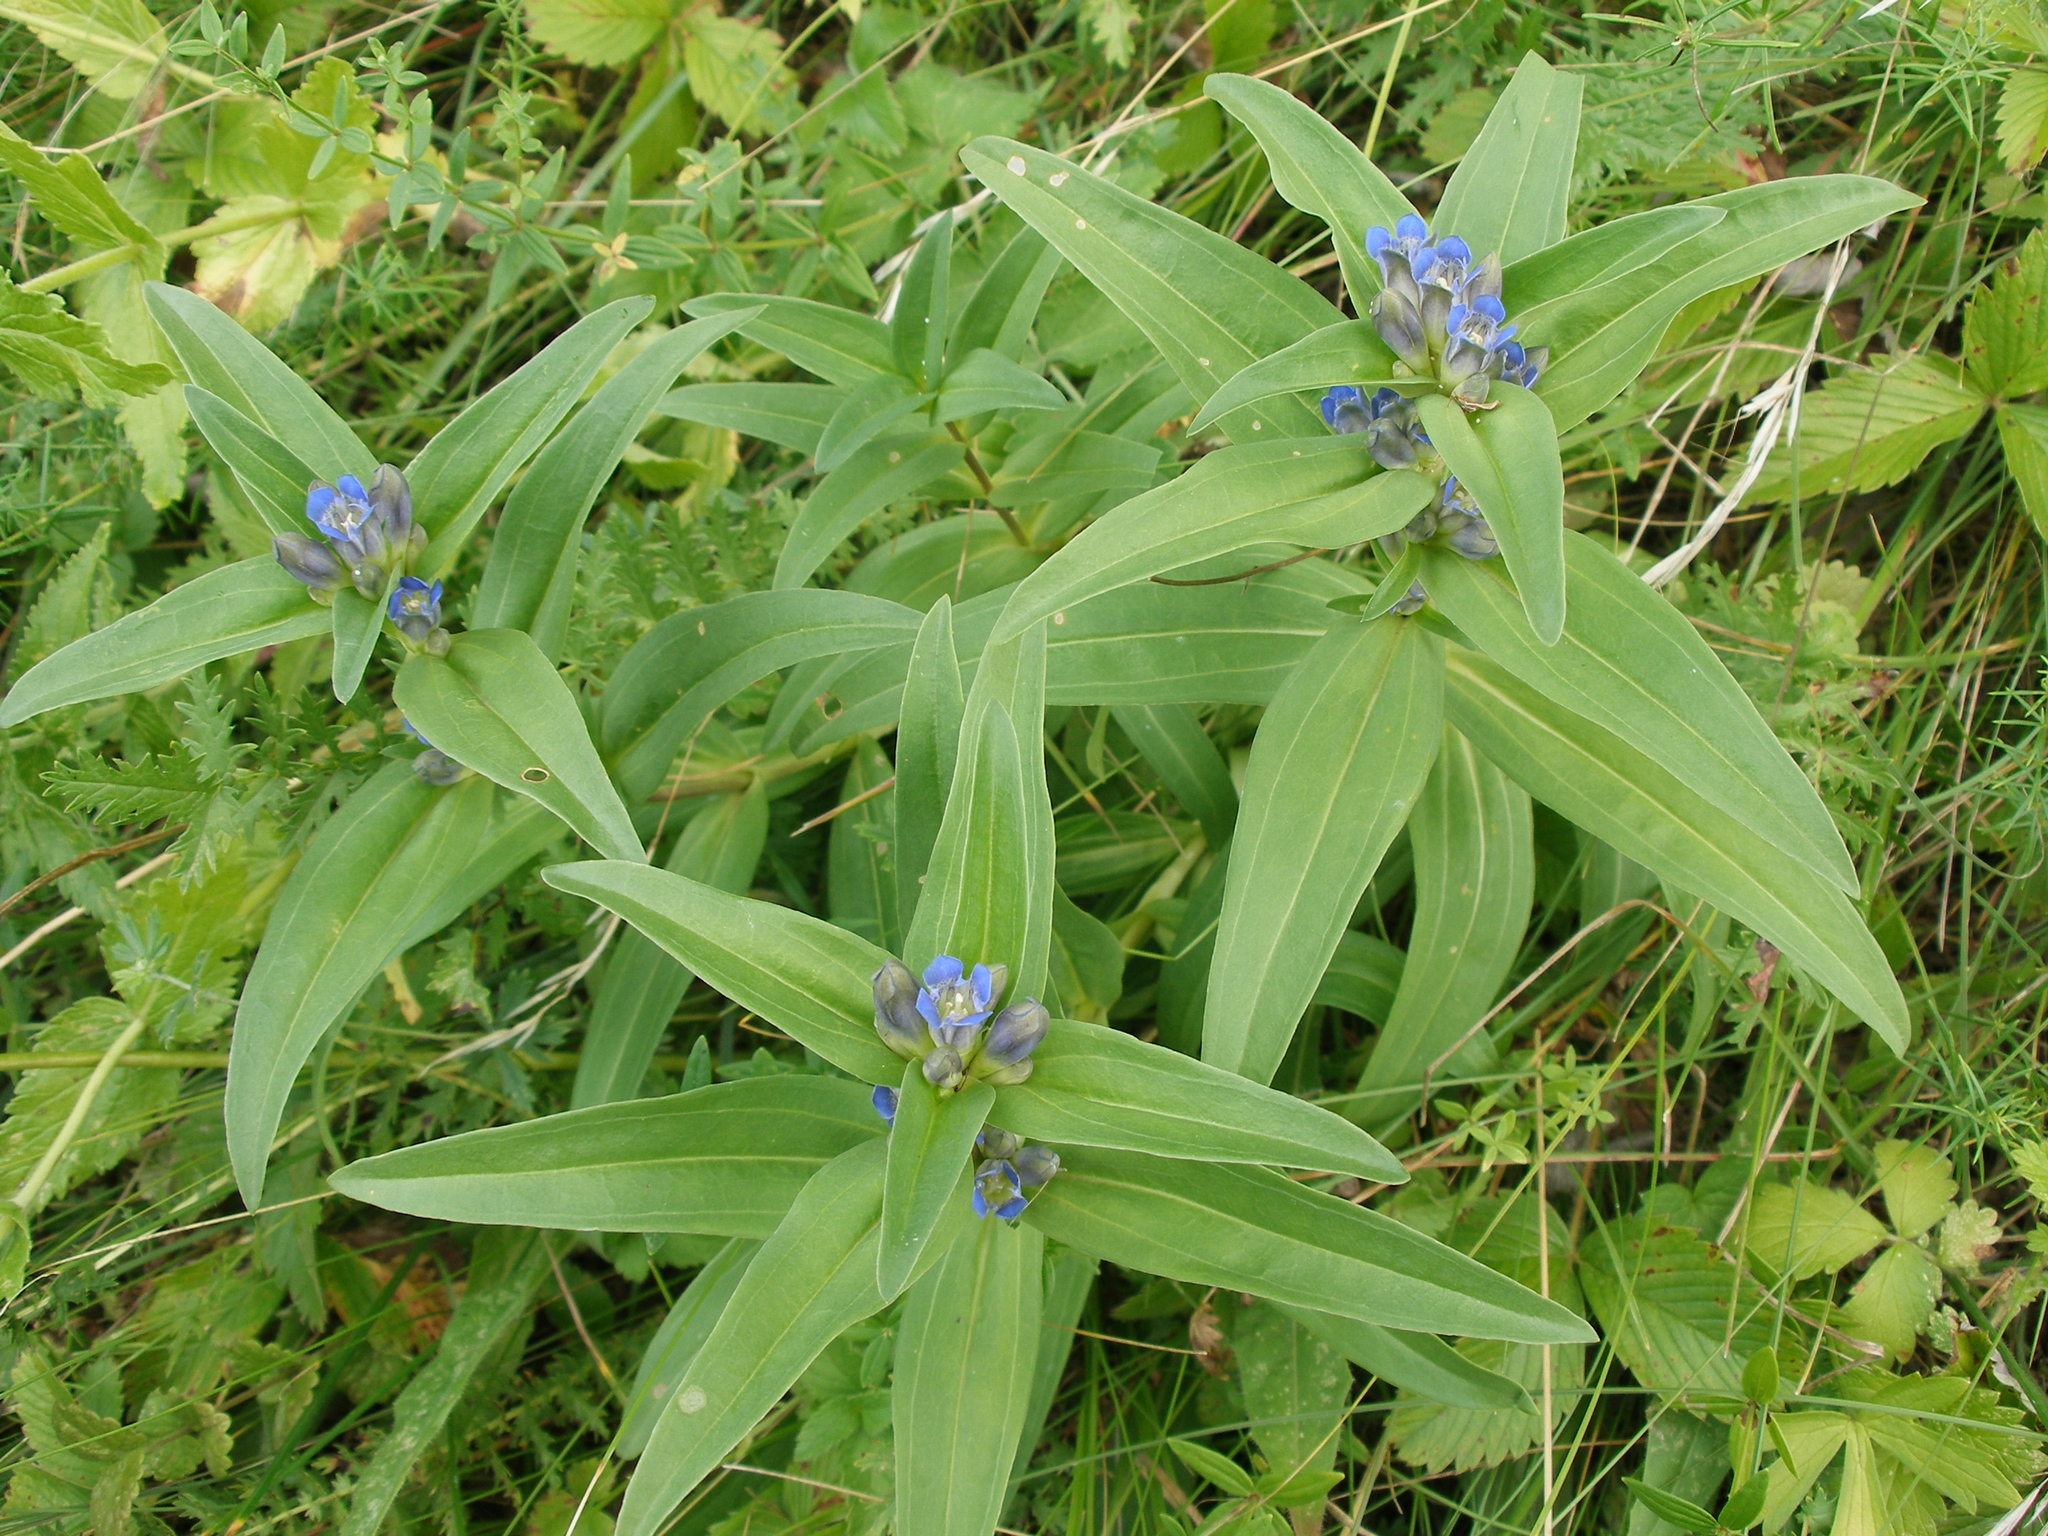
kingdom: Plantae
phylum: Tracheophyta
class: Magnoliopsida
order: Gentianales
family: Gentianaceae
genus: Gentiana
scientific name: Gentiana cruciata
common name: Cross gentian
